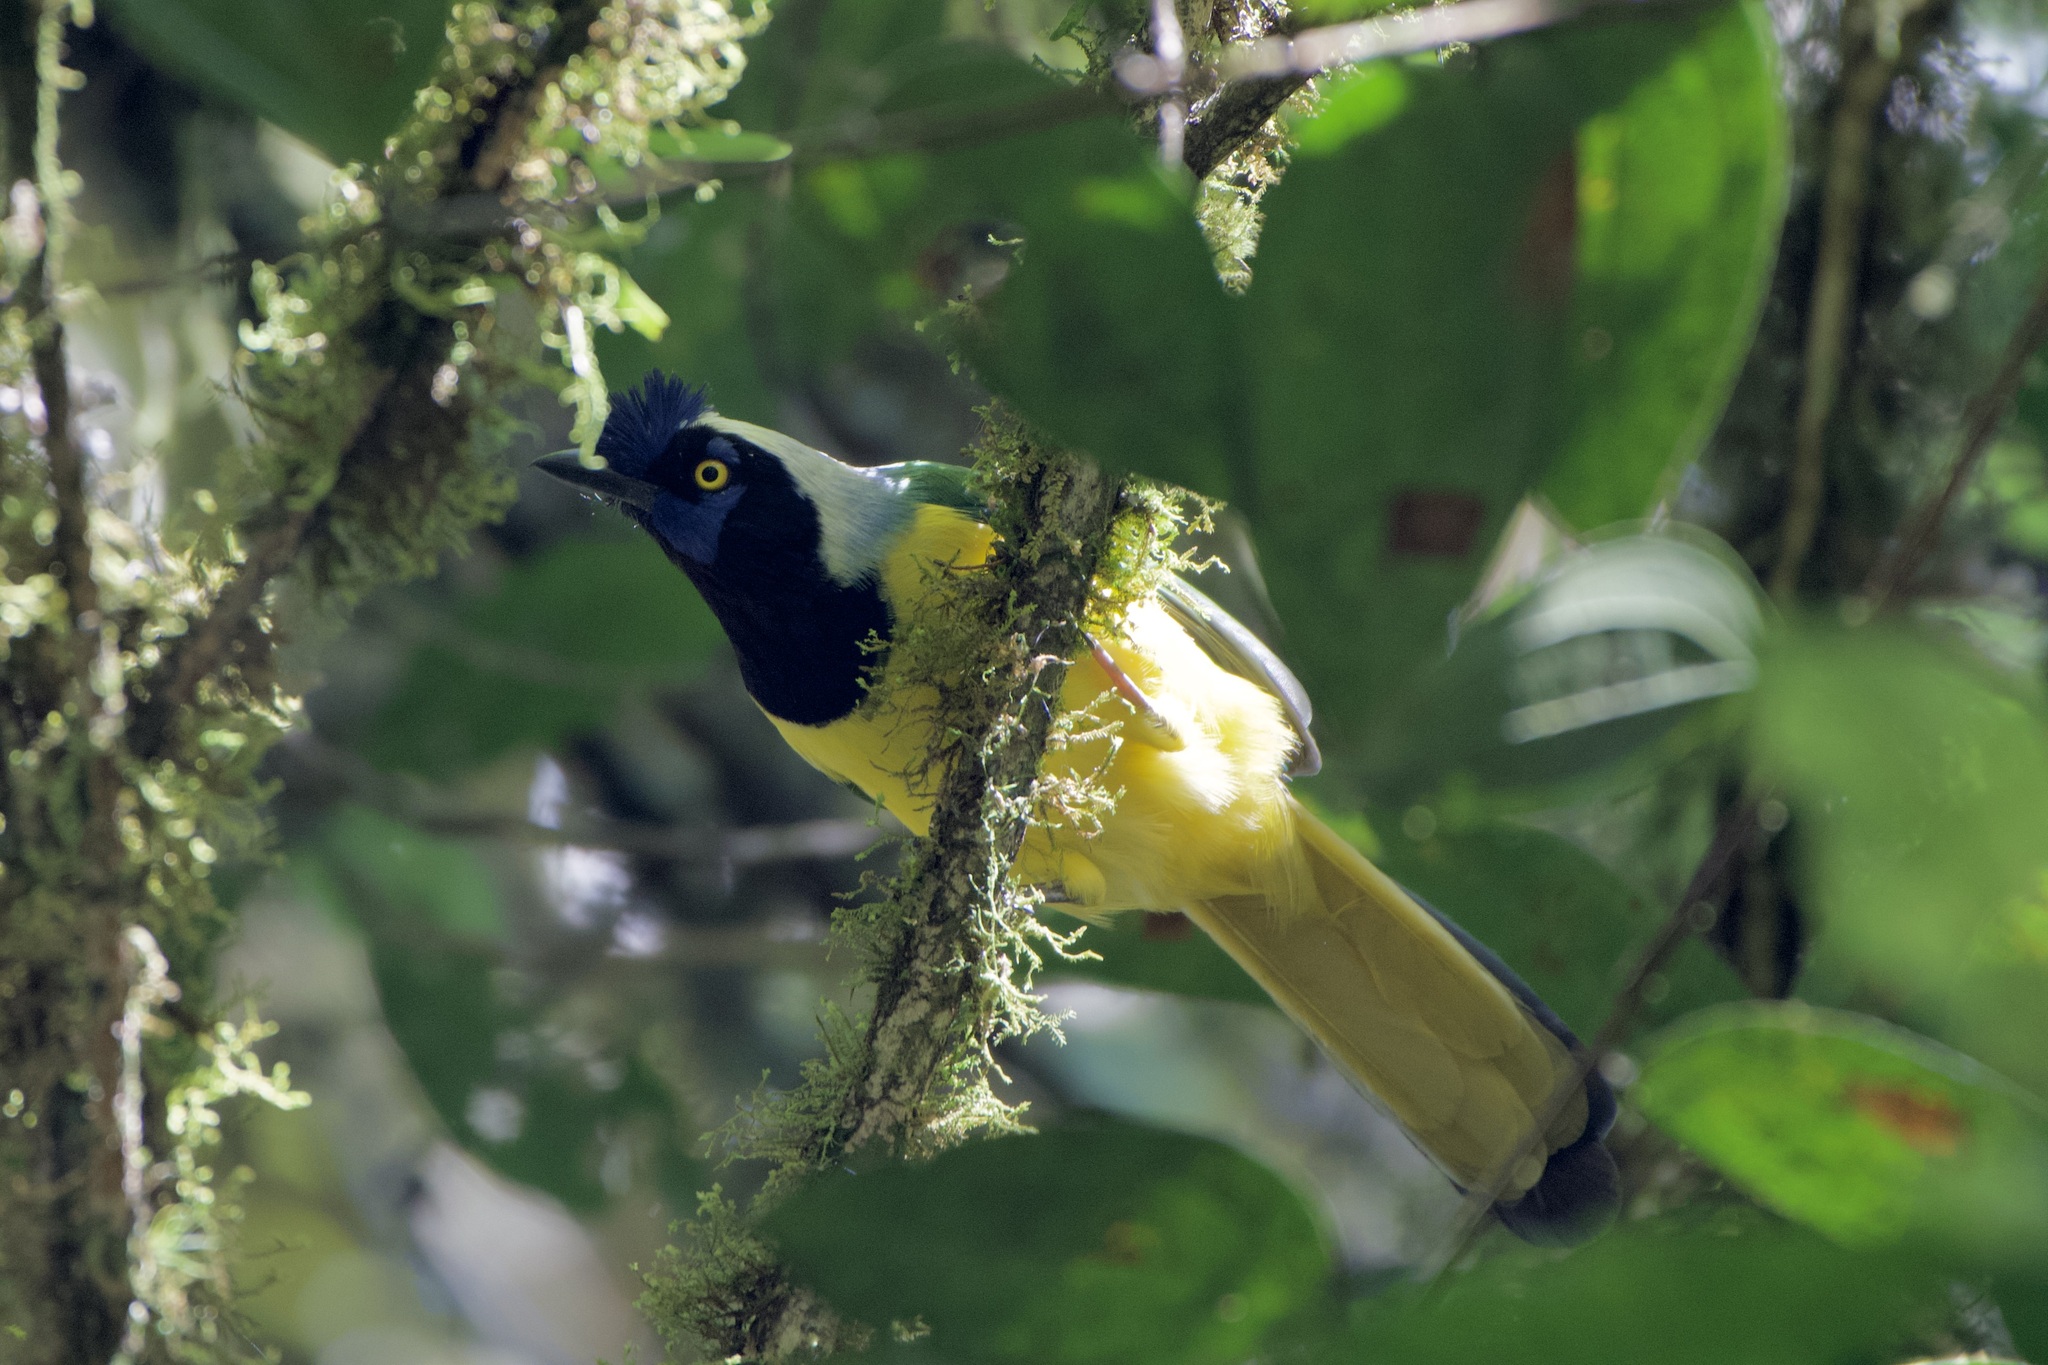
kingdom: Animalia
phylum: Chordata
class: Aves
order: Passeriformes
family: Corvidae
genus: Cyanocorax
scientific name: Cyanocorax yncas
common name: Green jay
